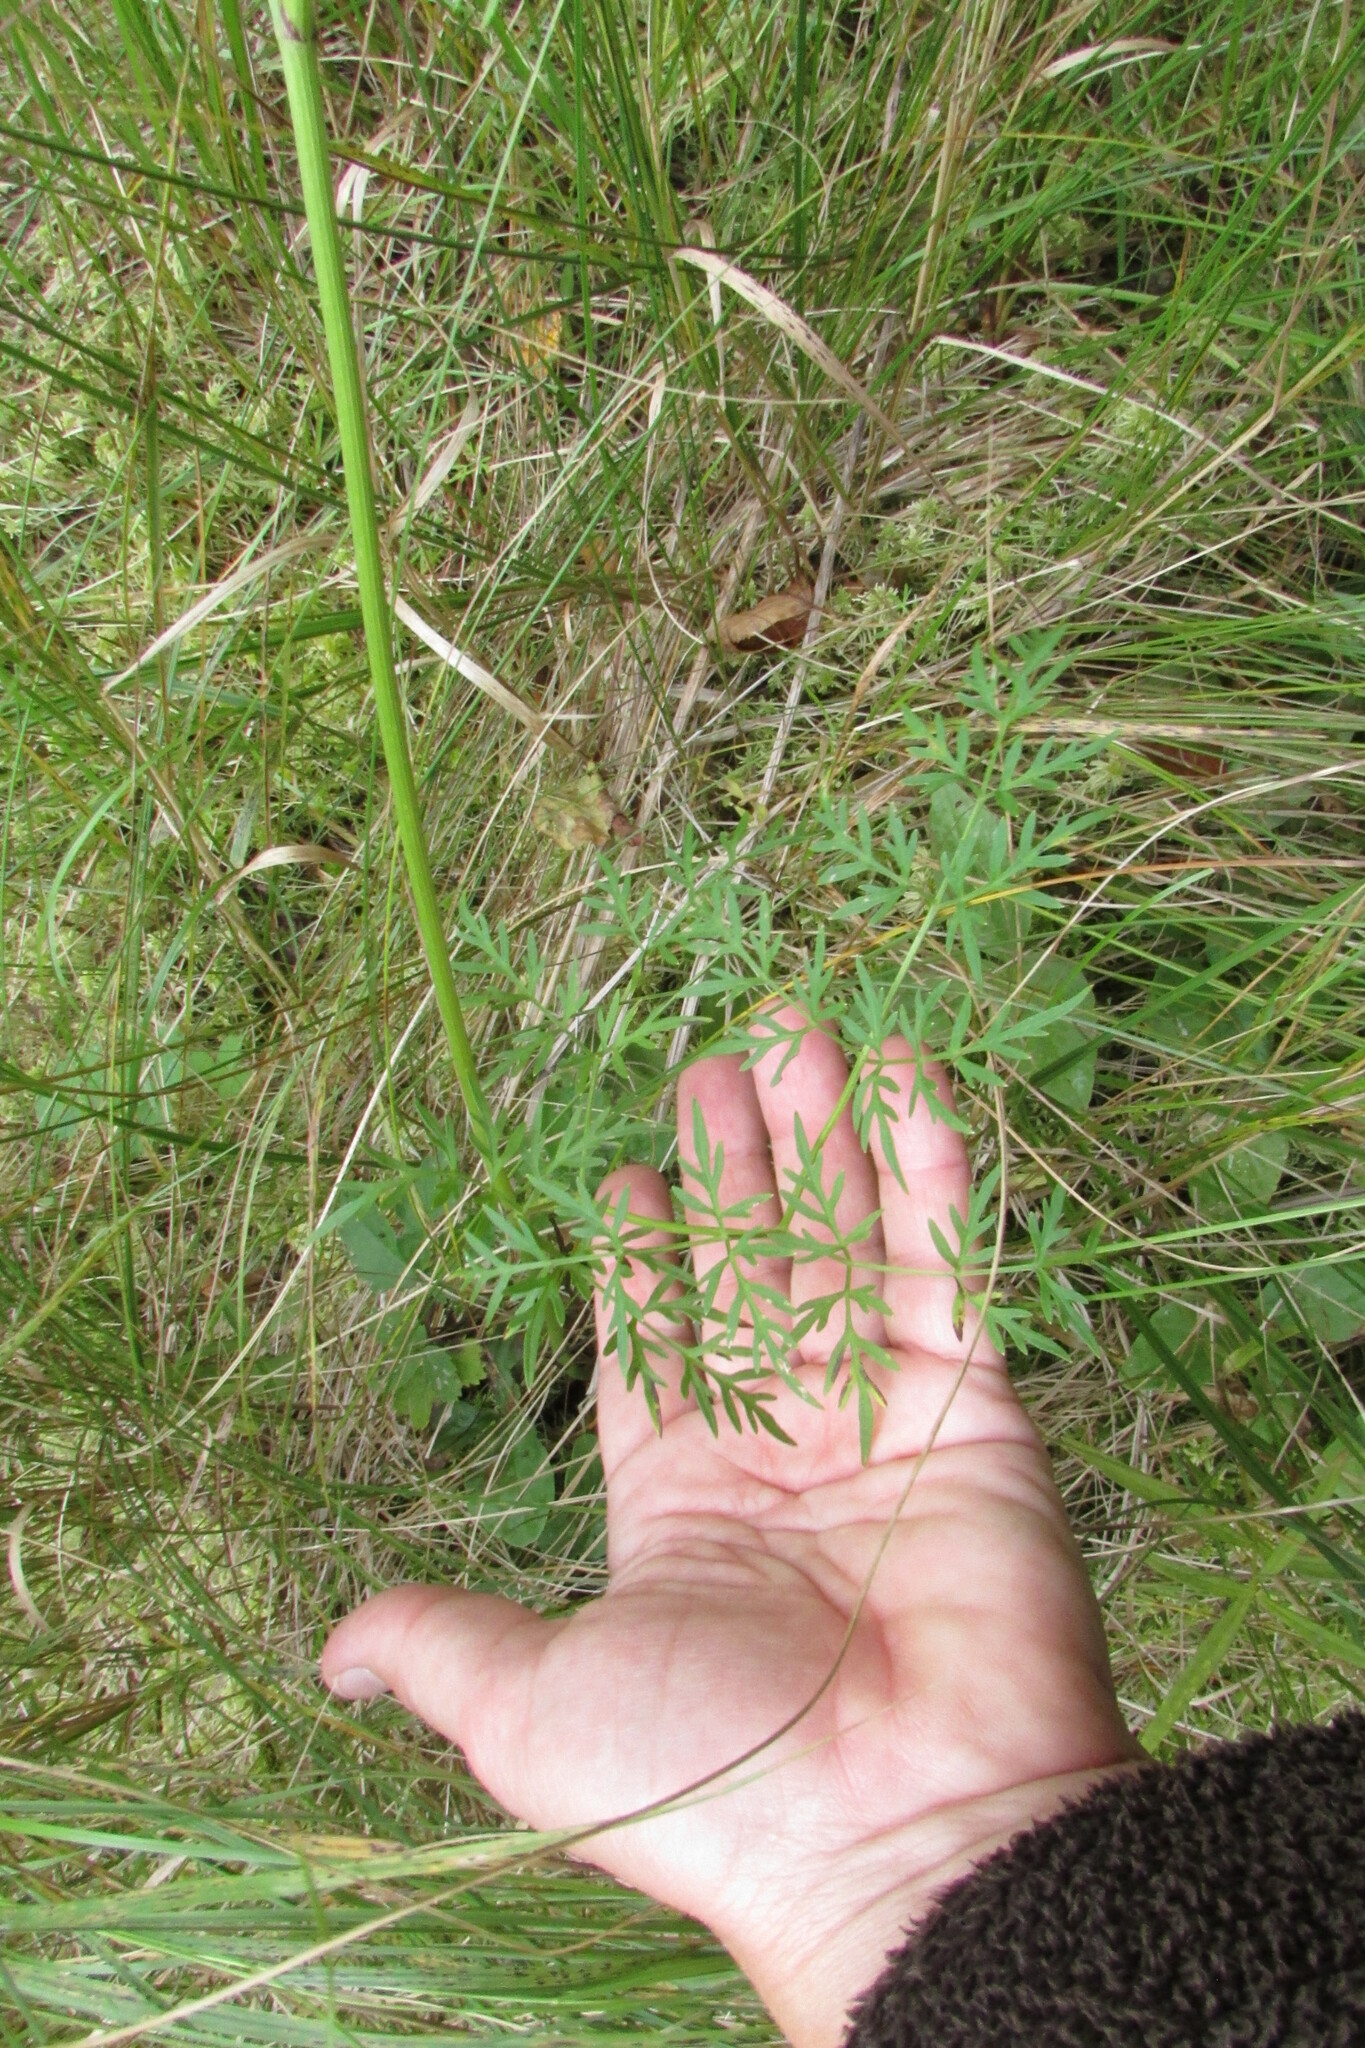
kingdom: Plantae
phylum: Tracheophyta
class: Magnoliopsida
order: Apiales
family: Apiaceae
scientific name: Apiaceae
